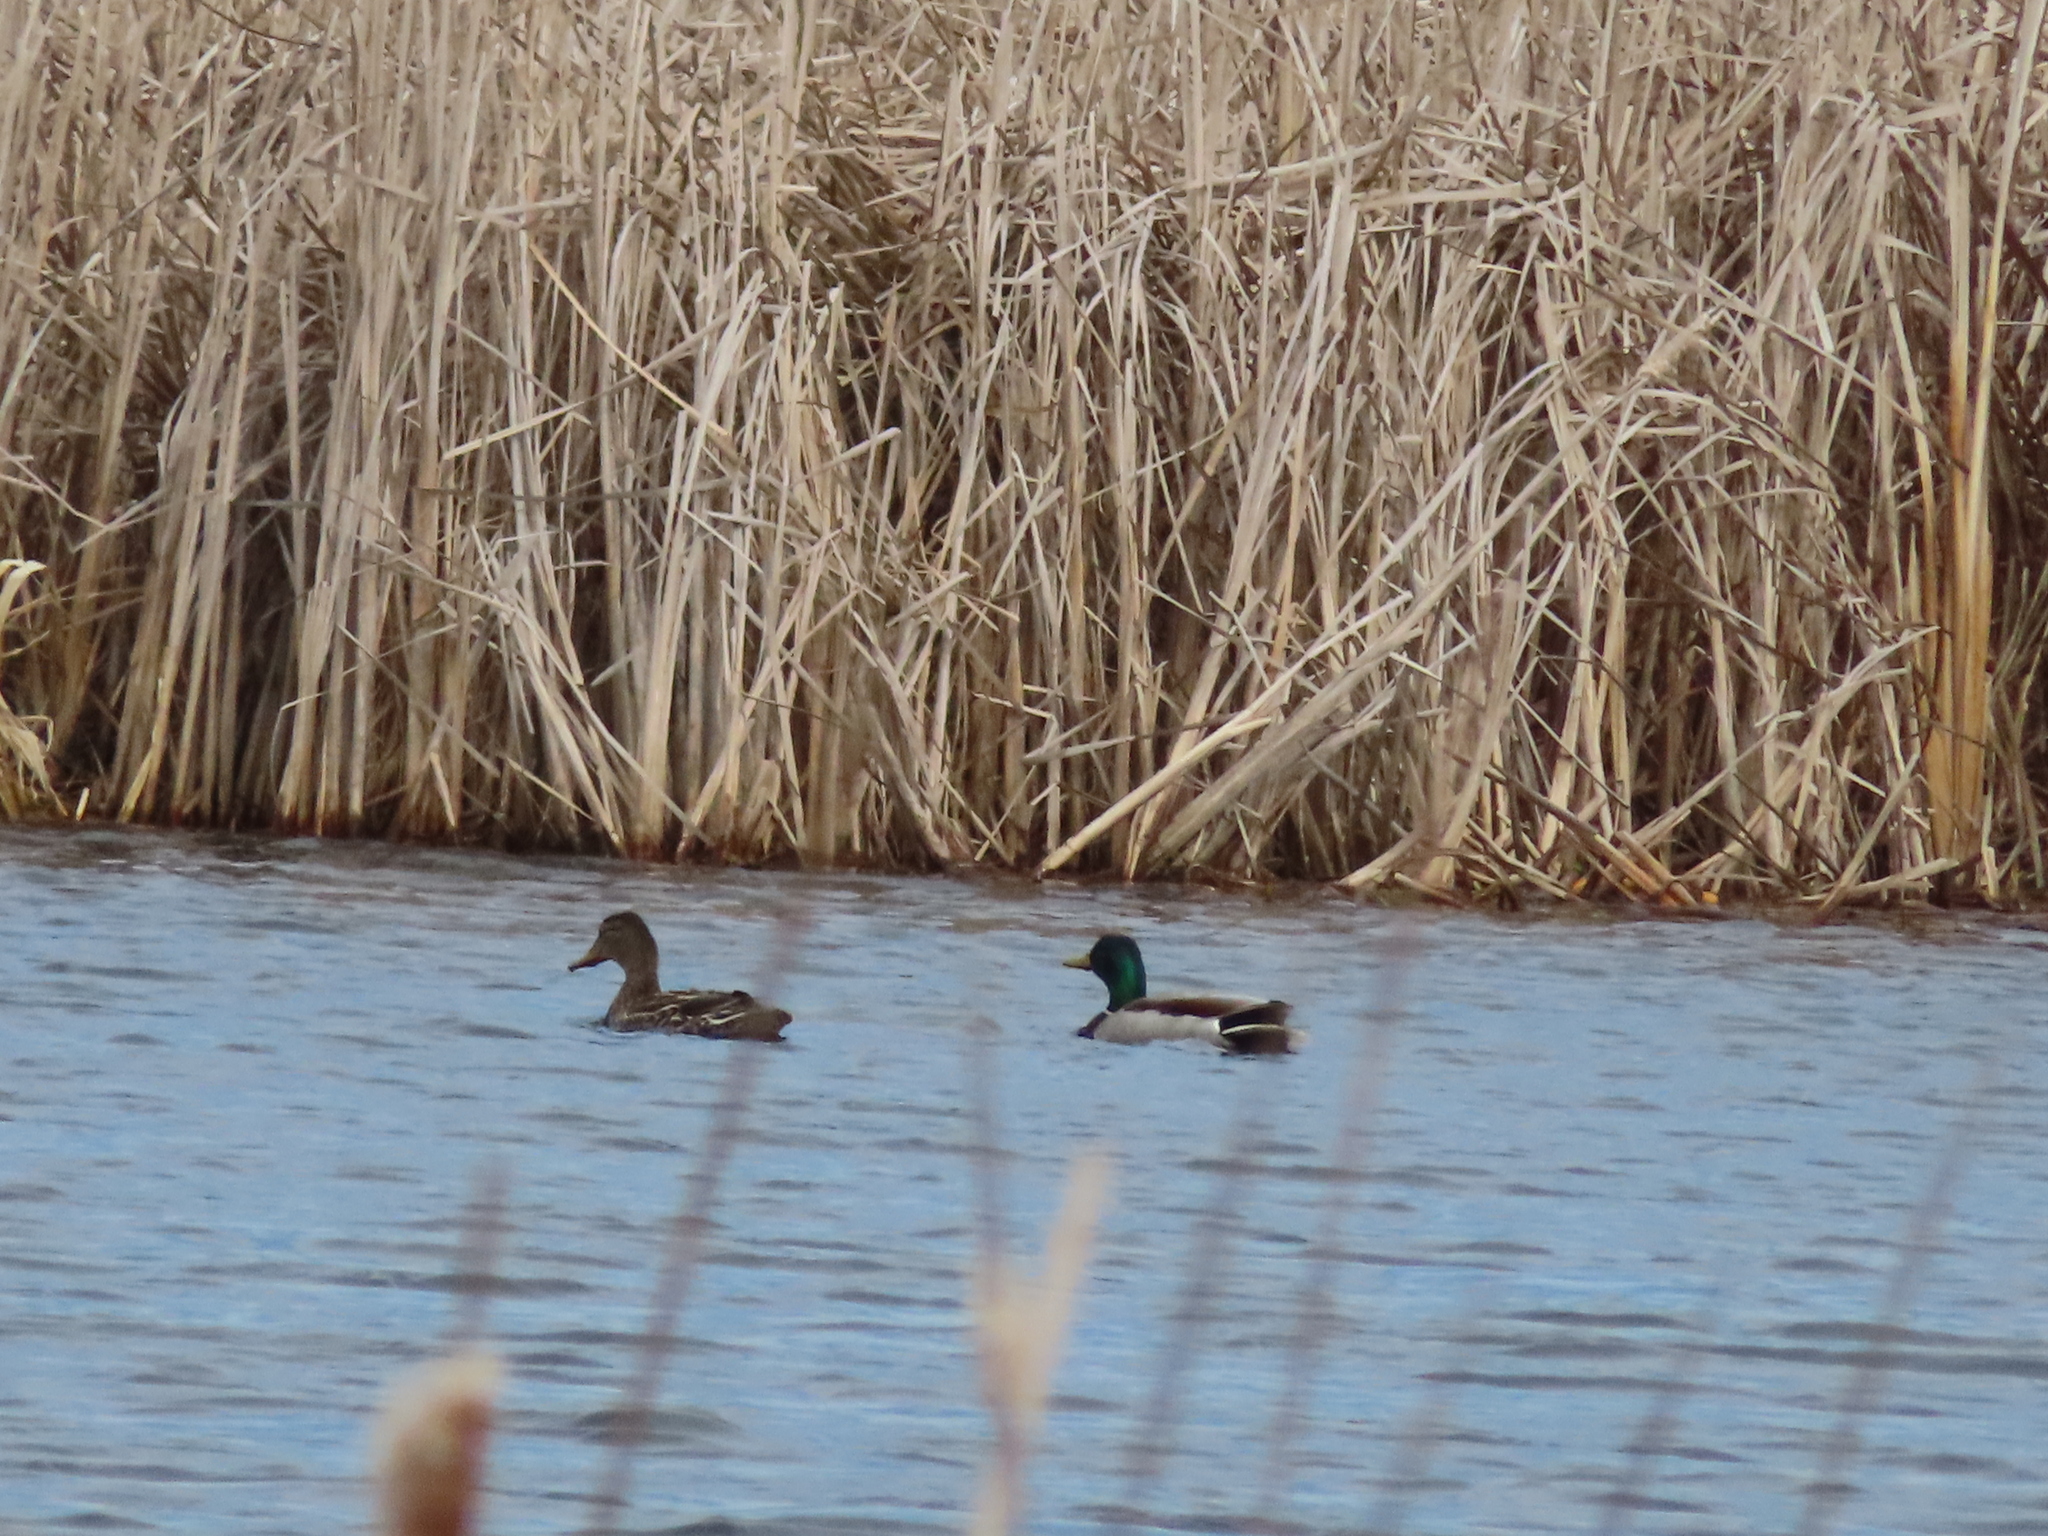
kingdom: Animalia
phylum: Chordata
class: Aves
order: Anseriformes
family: Anatidae
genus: Anas
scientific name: Anas platyrhynchos
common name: Mallard
